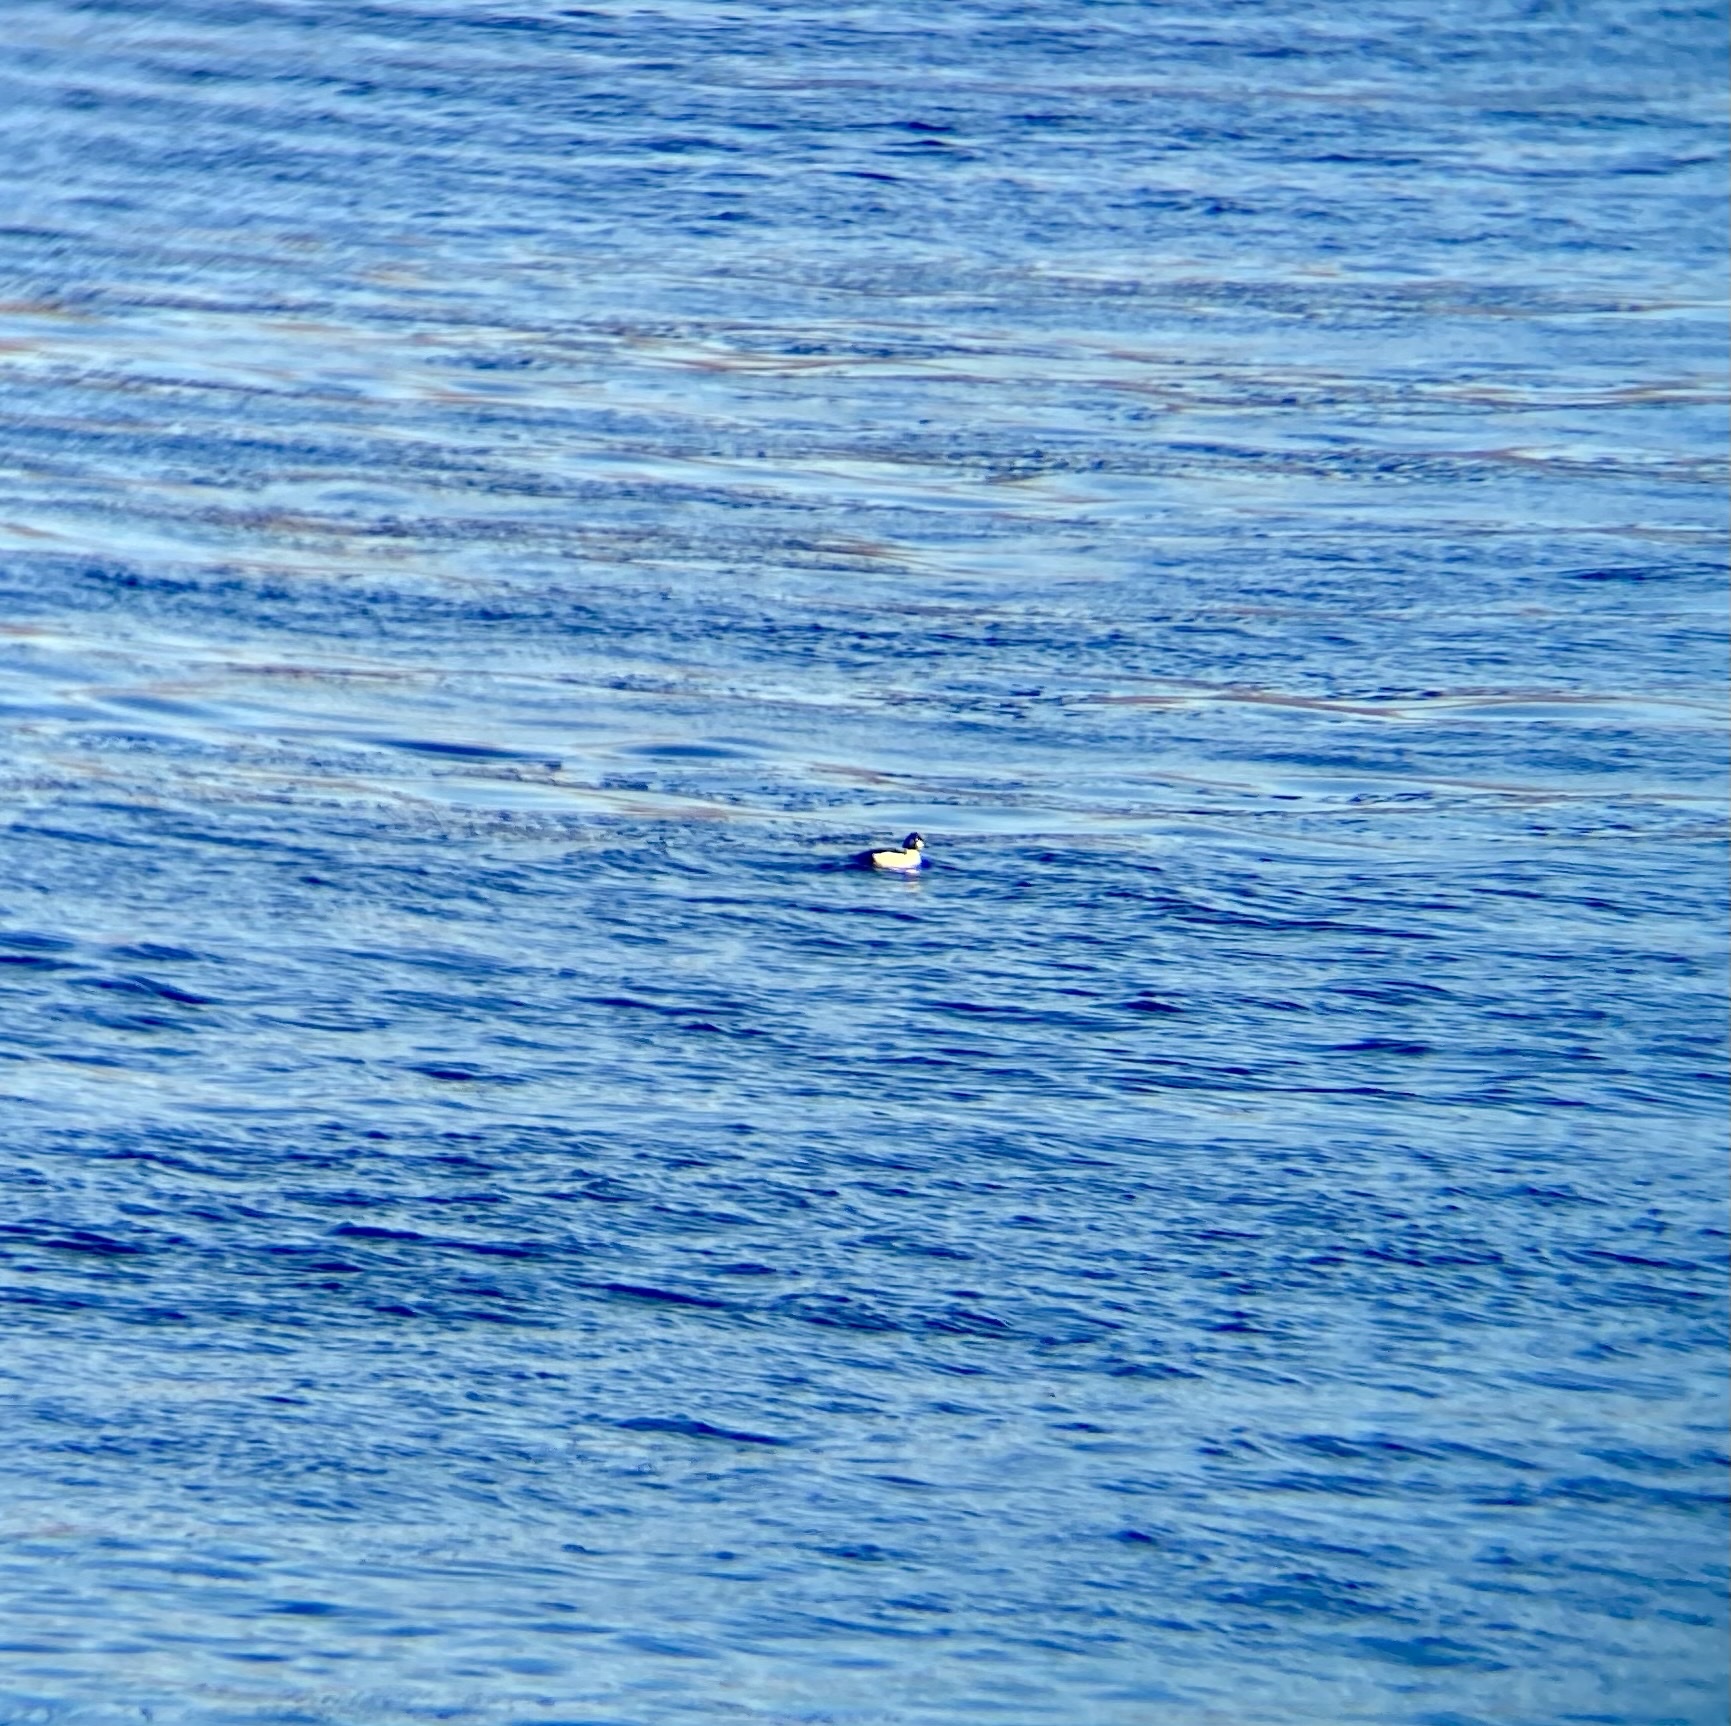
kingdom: Animalia
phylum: Chordata
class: Aves
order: Anseriformes
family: Anatidae
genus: Bucephala
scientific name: Bucephala clangula
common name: Common goldeneye
